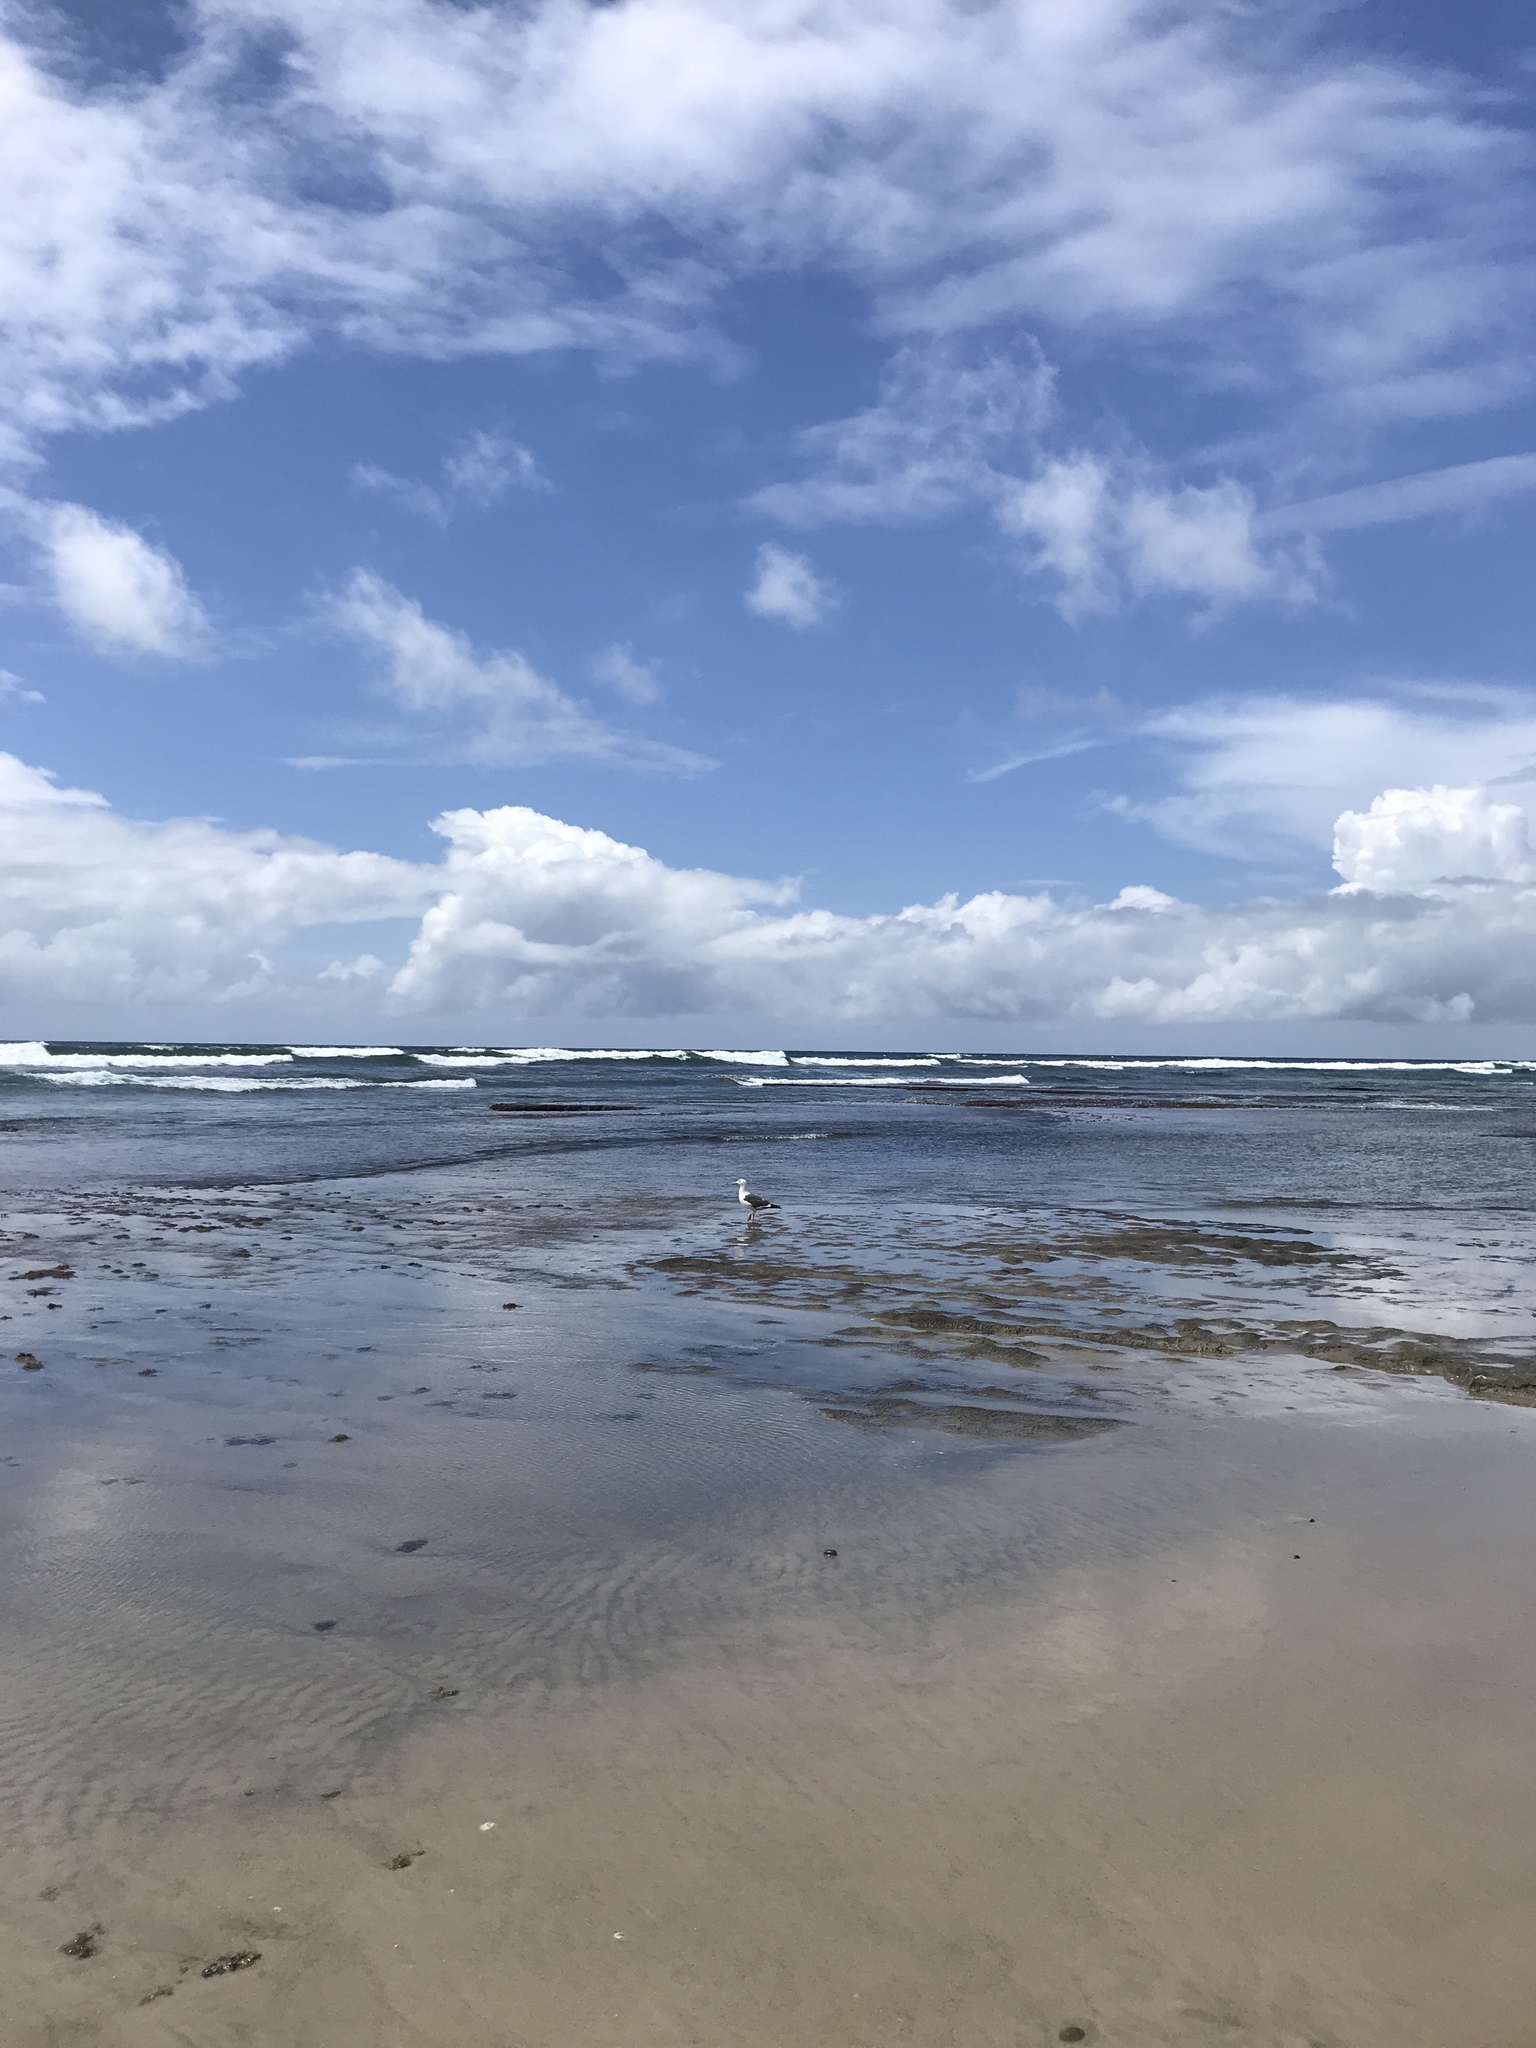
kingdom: Animalia
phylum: Chordata
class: Aves
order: Charadriiformes
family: Laridae
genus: Larus
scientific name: Larus occidentalis
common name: Western gull
